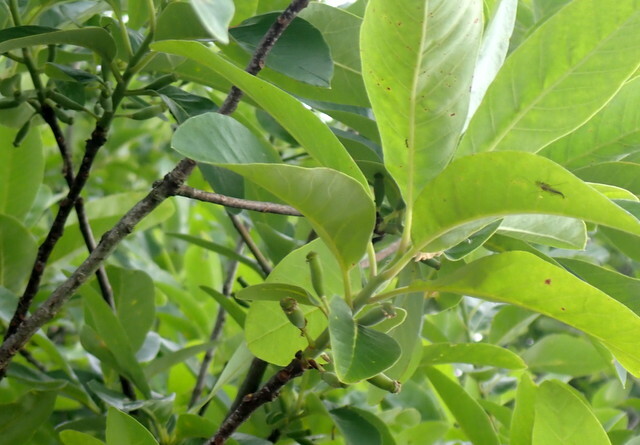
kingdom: Plantae
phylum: Tracheophyta
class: Magnoliopsida
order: Cornales
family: Nyssaceae
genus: Nyssa
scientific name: Nyssa ogeche
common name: Ogeechee tupelo
